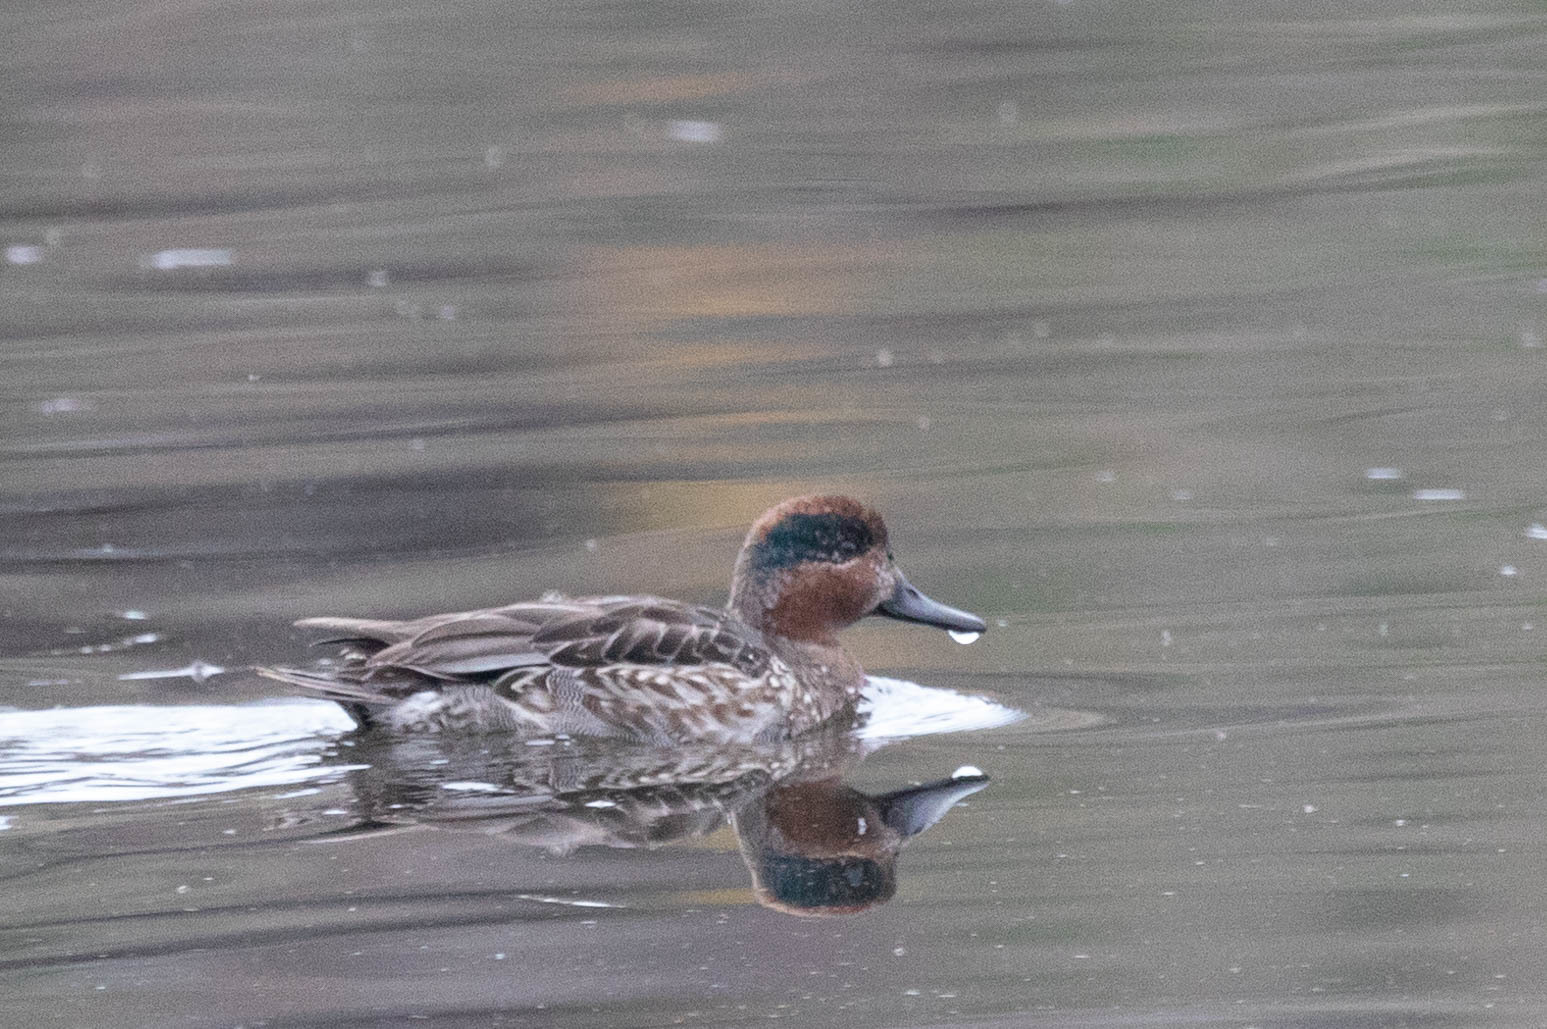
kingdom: Animalia
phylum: Chordata
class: Aves
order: Anseriformes
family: Anatidae
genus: Anas
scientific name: Anas crecca
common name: Eurasian teal
